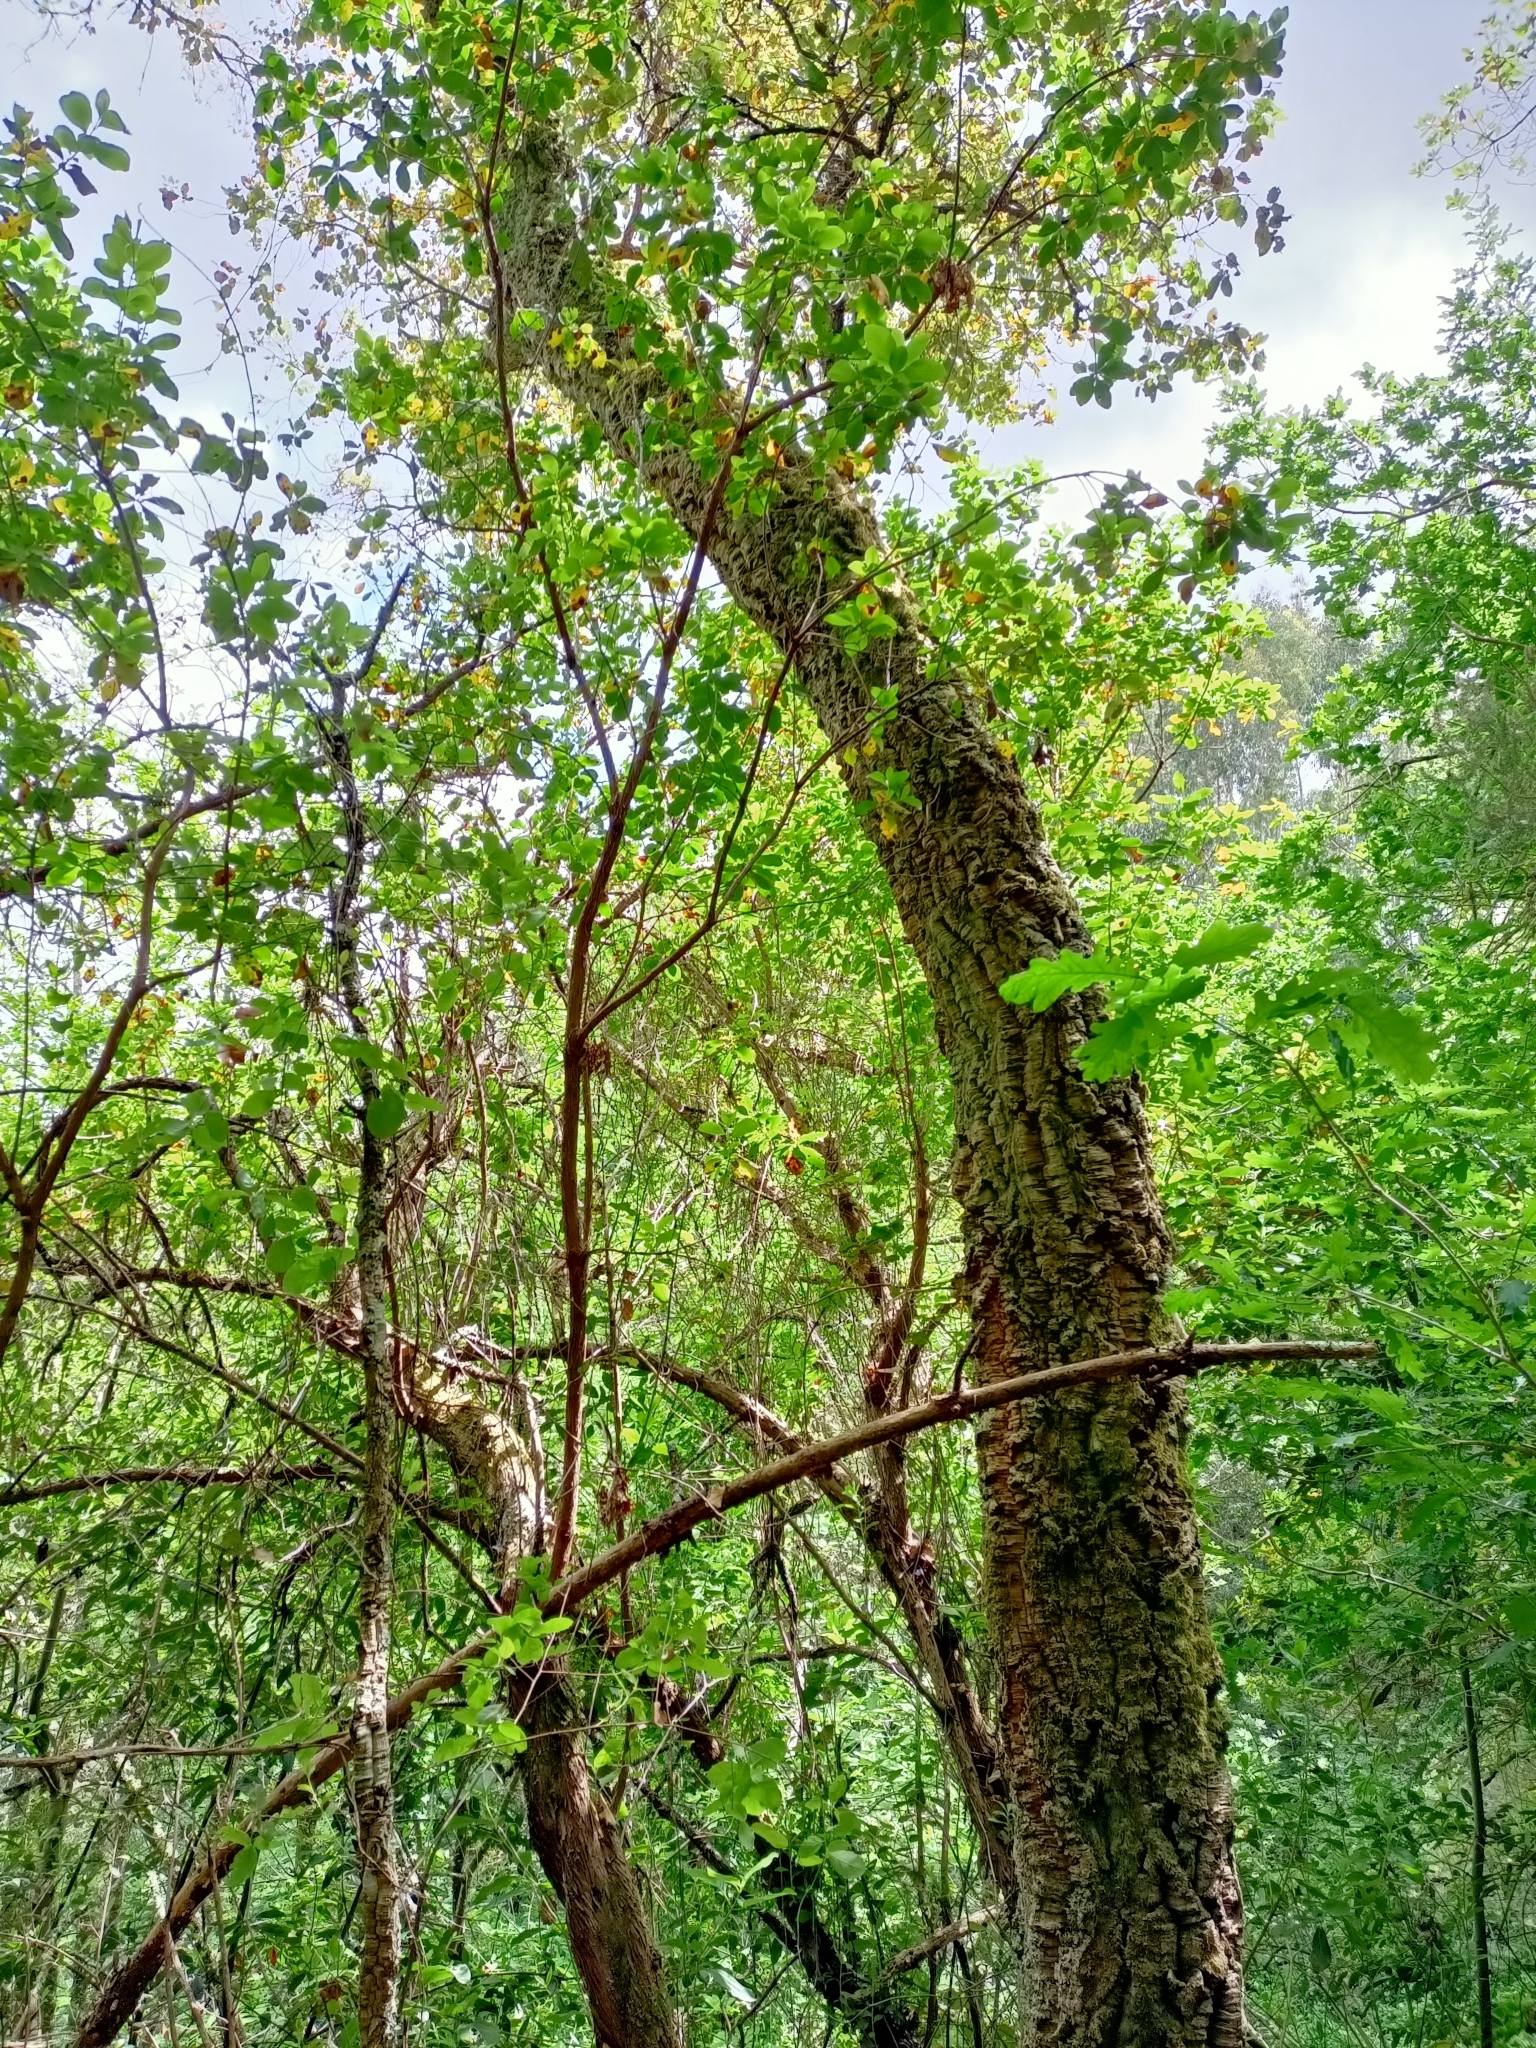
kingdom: Plantae
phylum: Tracheophyta
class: Magnoliopsida
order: Fagales
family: Fagaceae
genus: Quercus
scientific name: Quercus suber
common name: Cork oak
